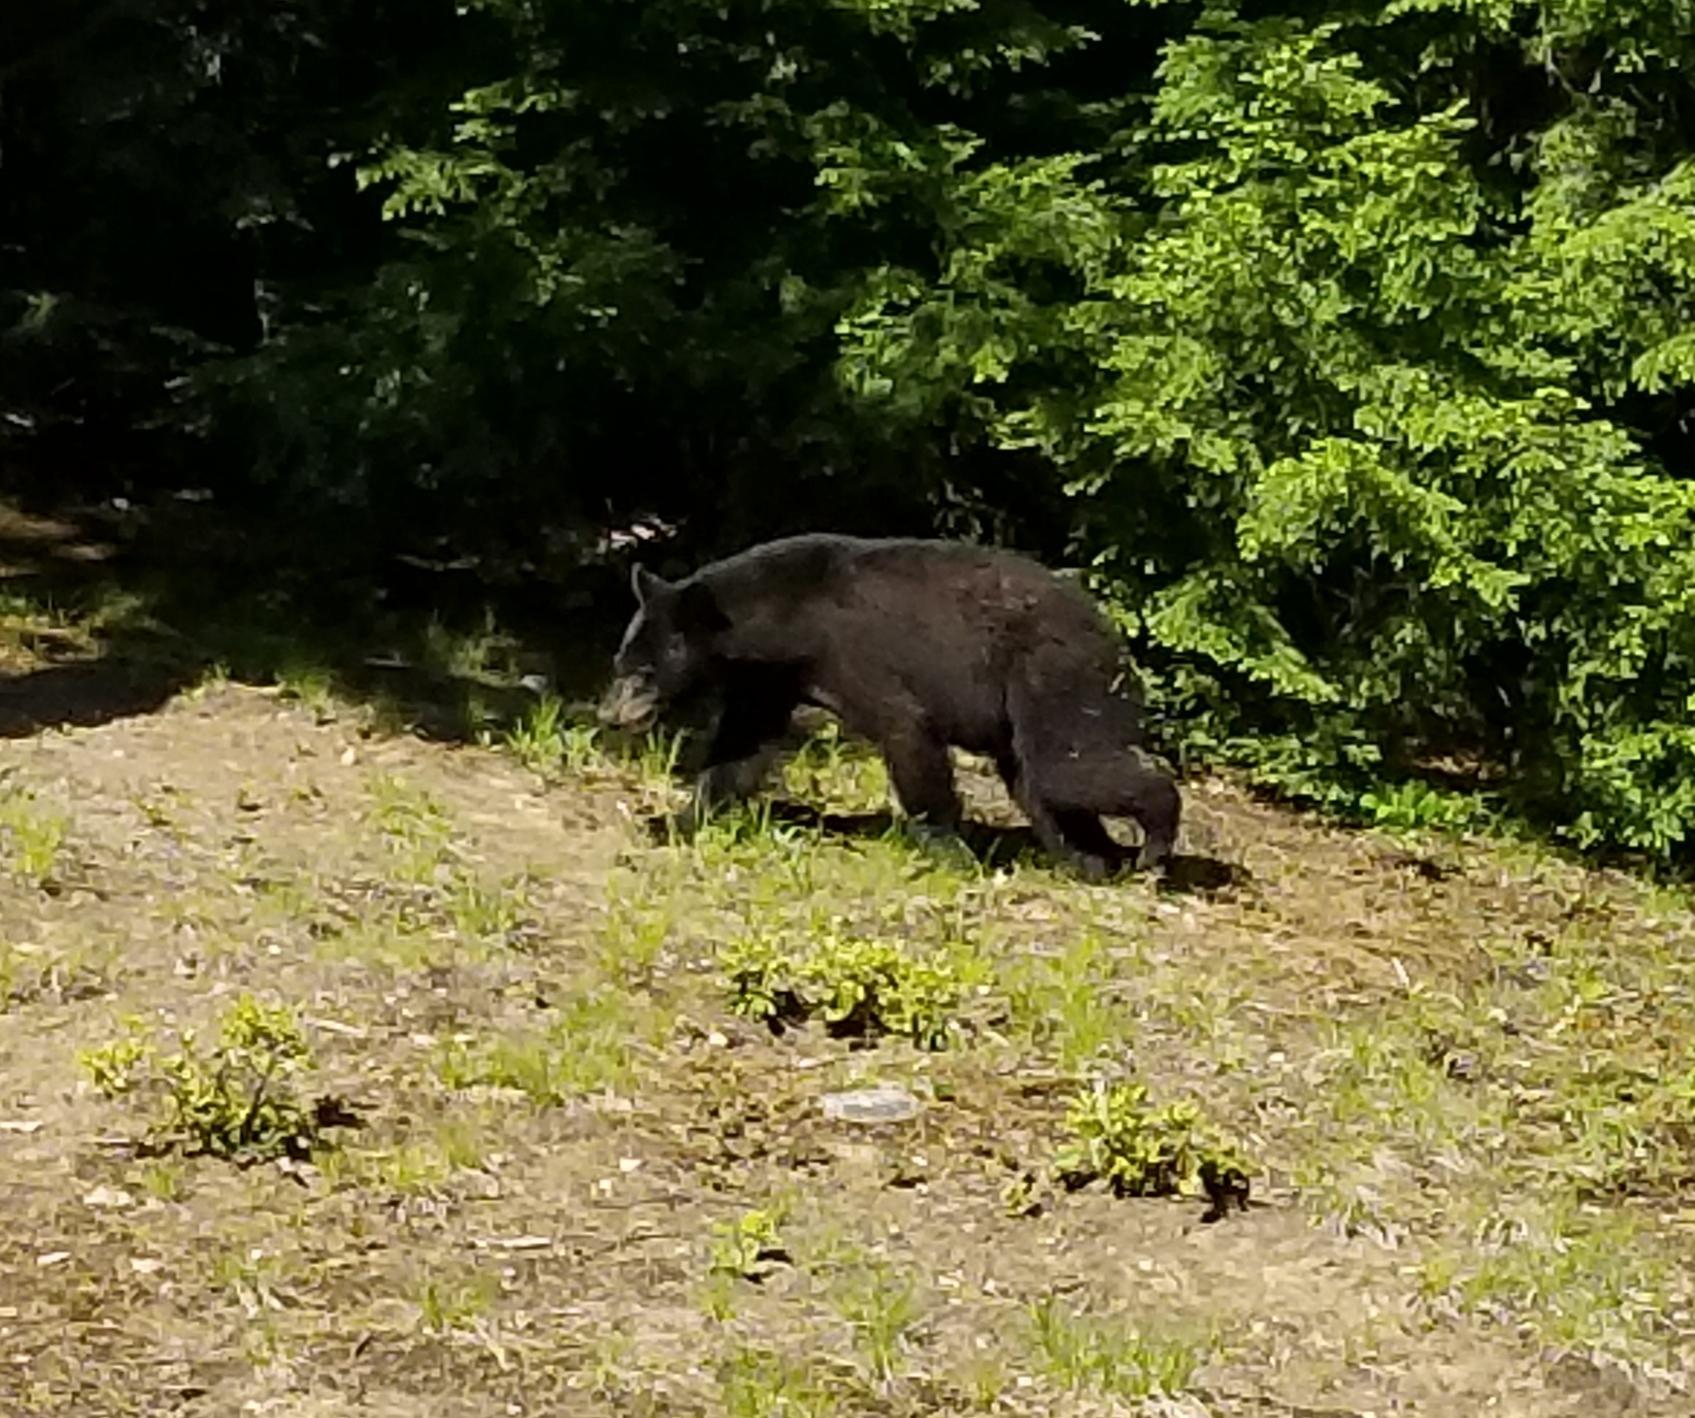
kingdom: Animalia
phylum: Chordata
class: Mammalia
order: Carnivora
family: Ursidae
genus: Ursus
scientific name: Ursus americanus
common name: American black bear
